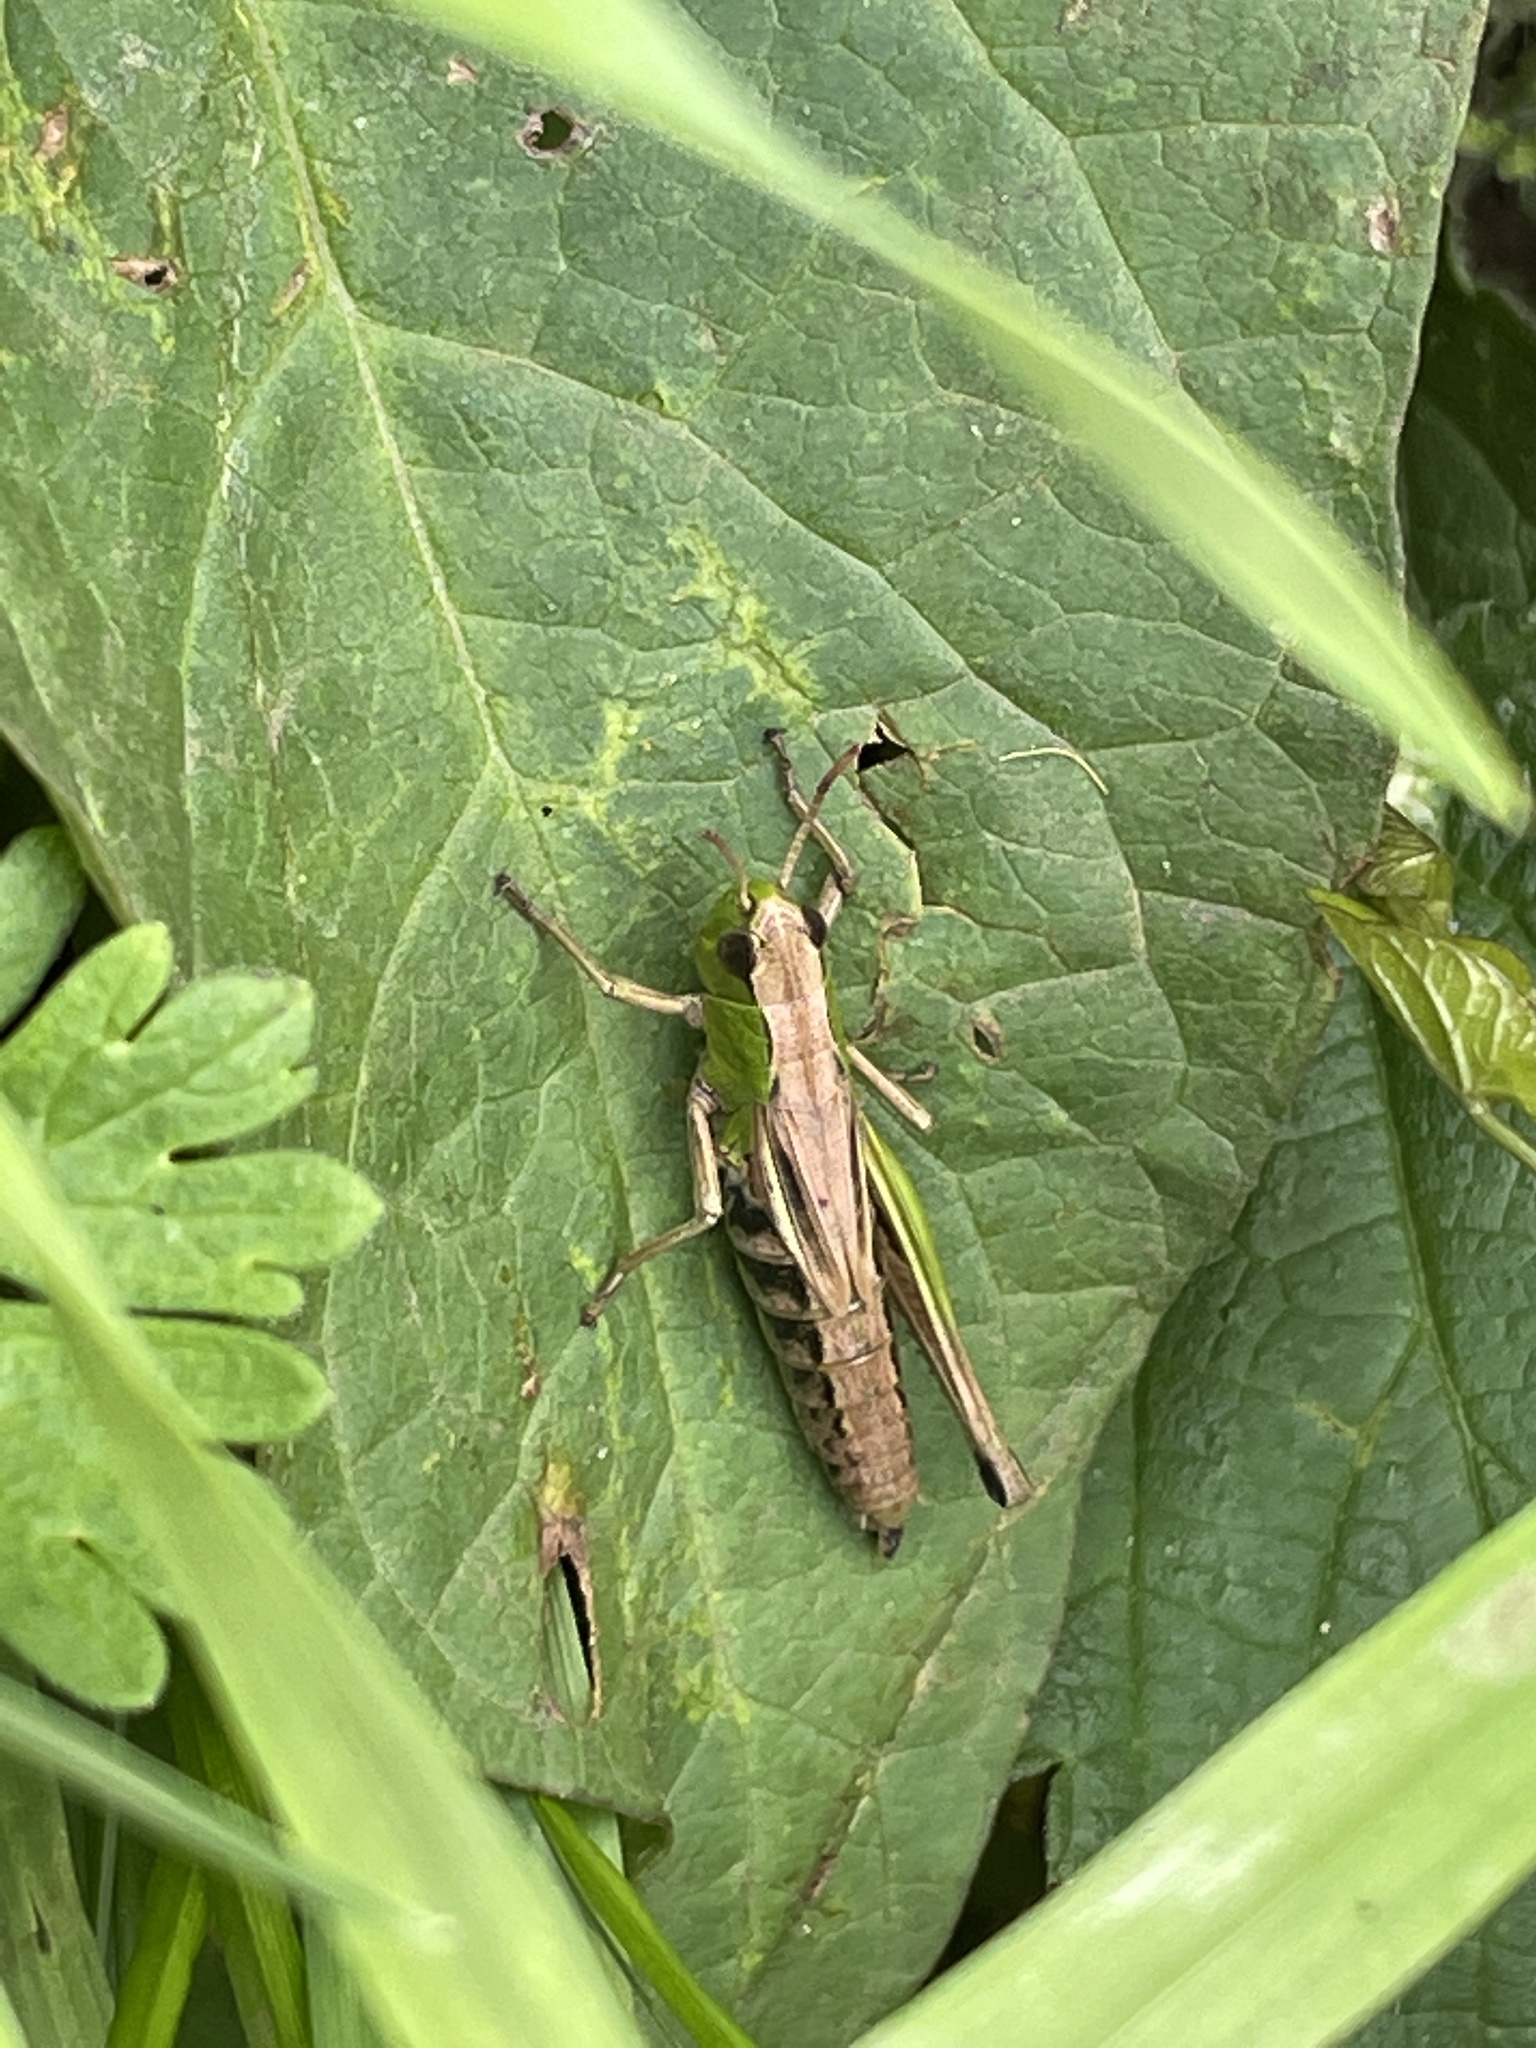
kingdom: Animalia
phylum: Arthropoda
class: Insecta
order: Orthoptera
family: Acrididae
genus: Pseudochorthippus
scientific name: Pseudochorthippus parallelus
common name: Meadow grasshopper
